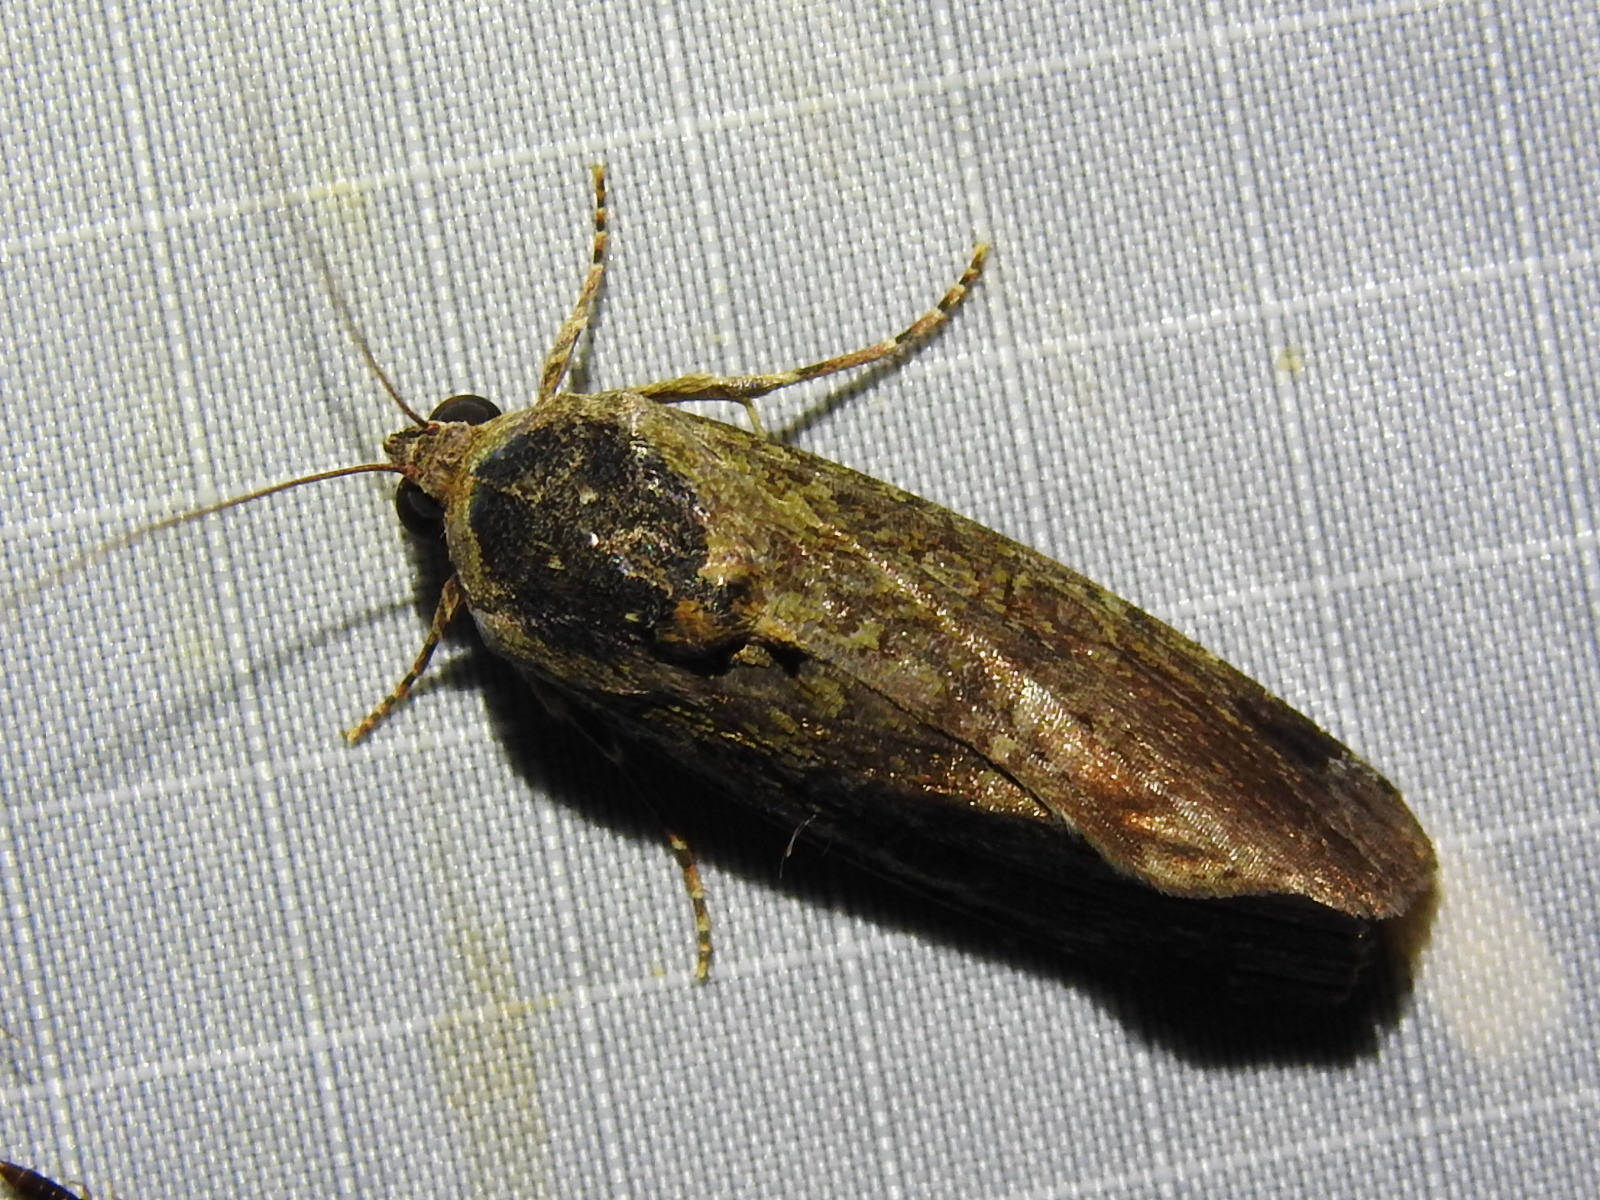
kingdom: Animalia
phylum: Arthropoda
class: Insecta
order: Lepidoptera
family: Noctuidae
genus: Magusa
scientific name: Magusa divaricata
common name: Orb narrow-winged moth
